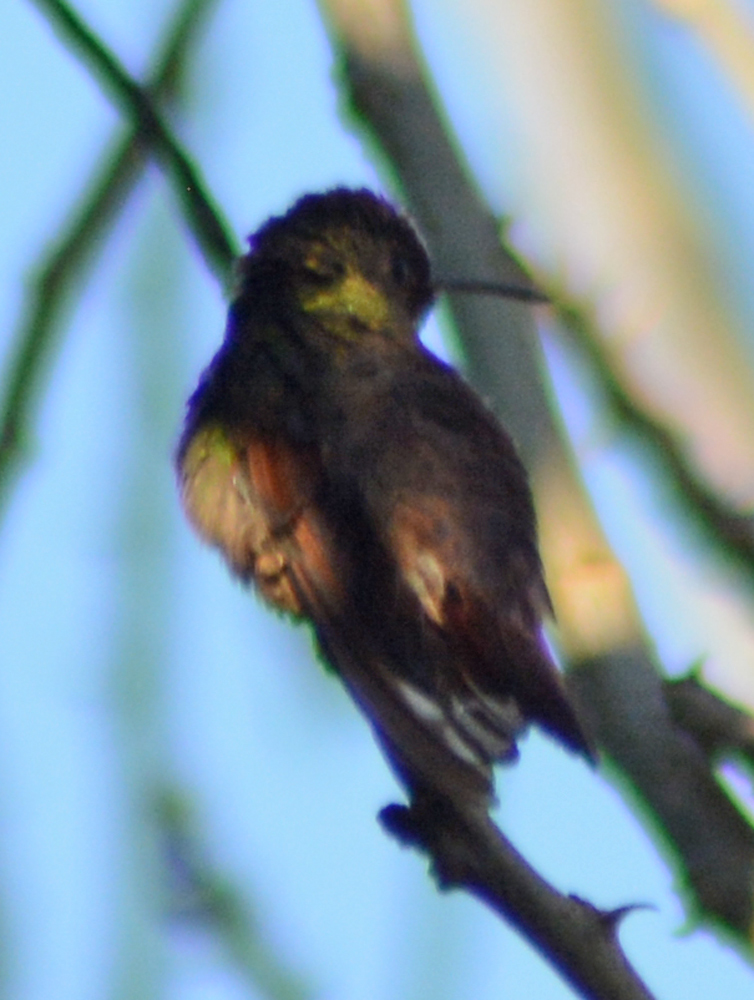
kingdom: Animalia
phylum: Chordata
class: Aves
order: Apodiformes
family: Trochilidae
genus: Saucerottia
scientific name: Saucerottia beryllina
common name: Berylline hummingbird
